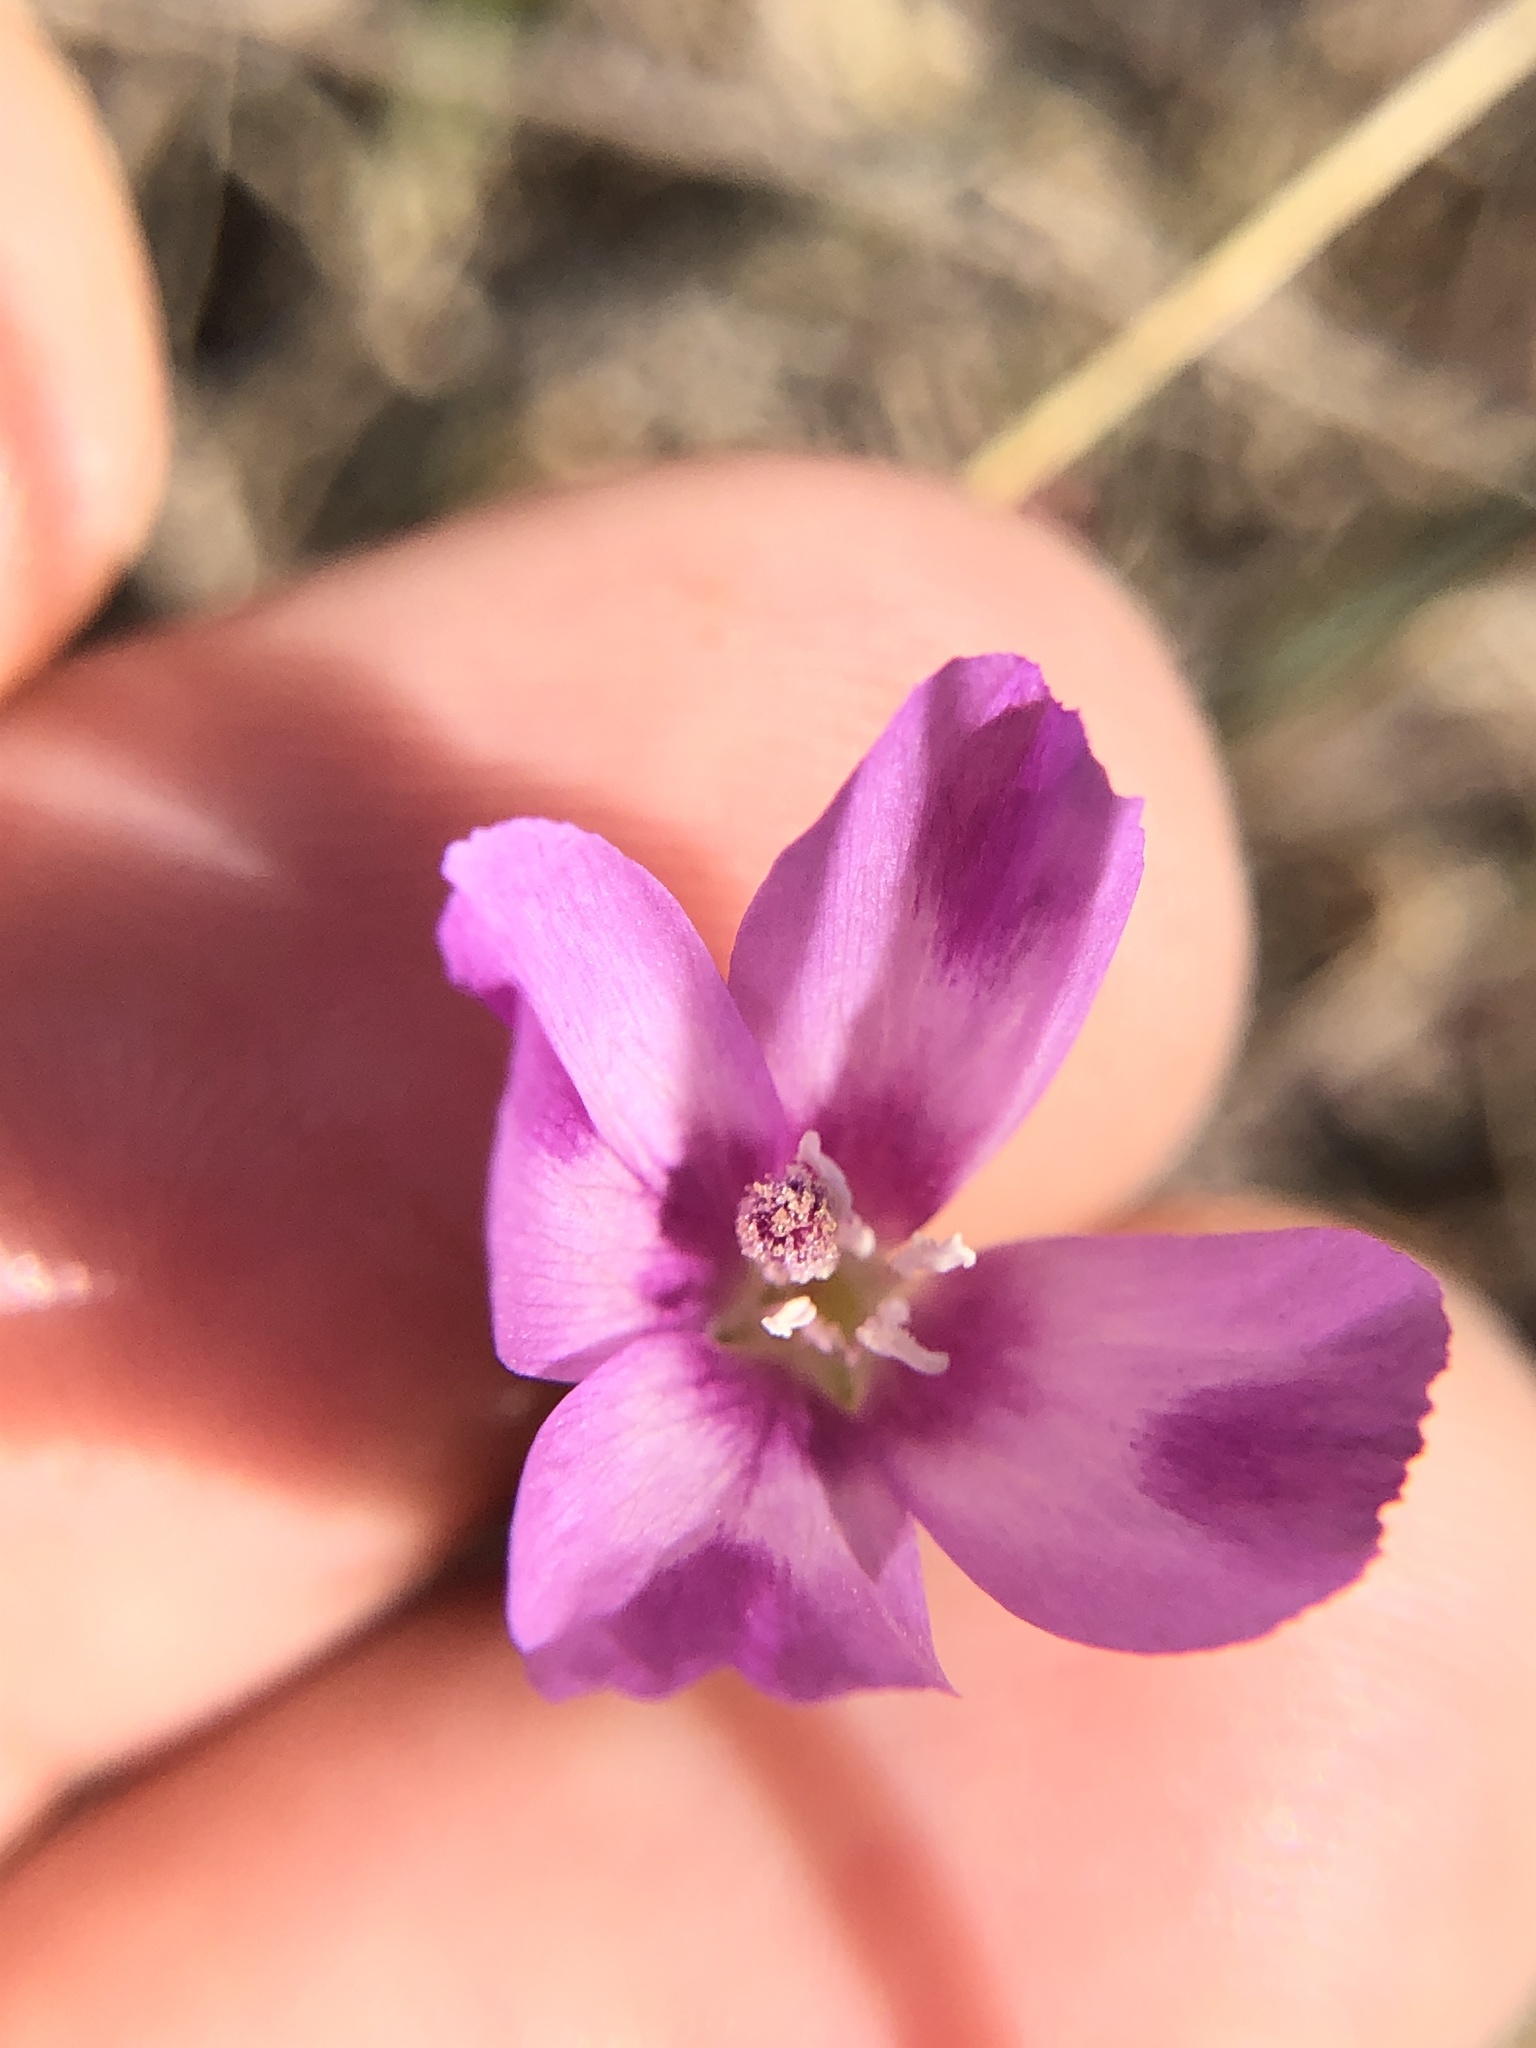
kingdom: Plantae
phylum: Tracheophyta
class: Magnoliopsida
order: Myrtales
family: Onagraceae
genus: Clarkia
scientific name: Clarkia purpurea
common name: Purple clarkia
